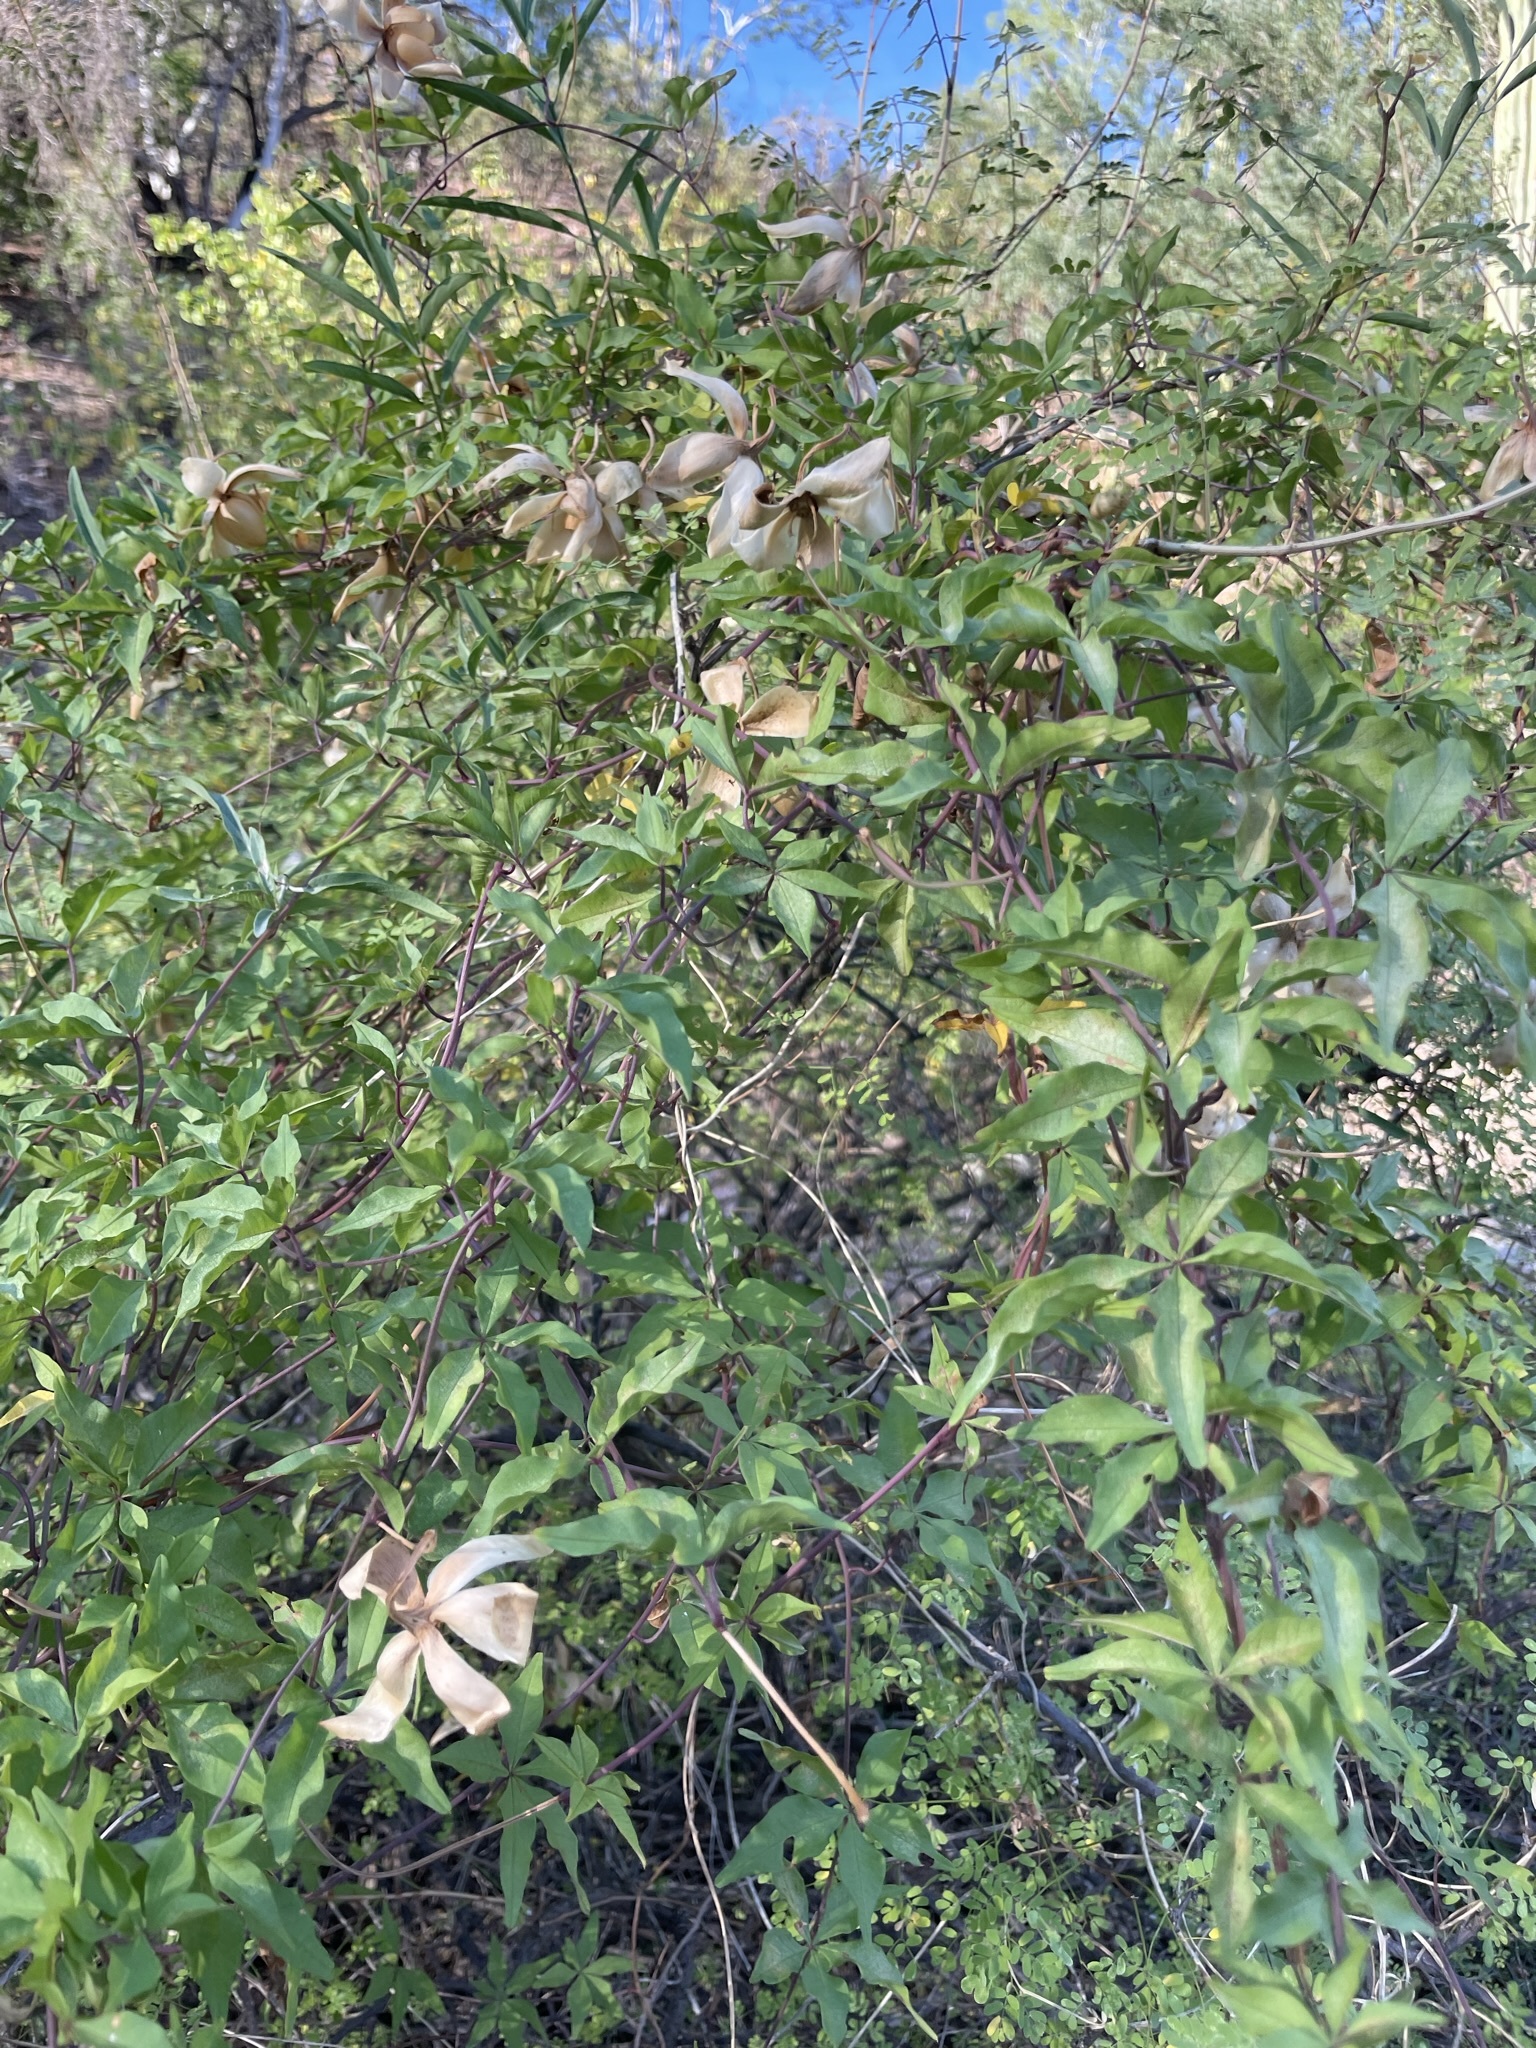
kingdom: Plantae
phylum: Tracheophyta
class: Magnoliopsida
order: Solanales
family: Convolvulaceae
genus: Distimake
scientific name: Distimake aureus
